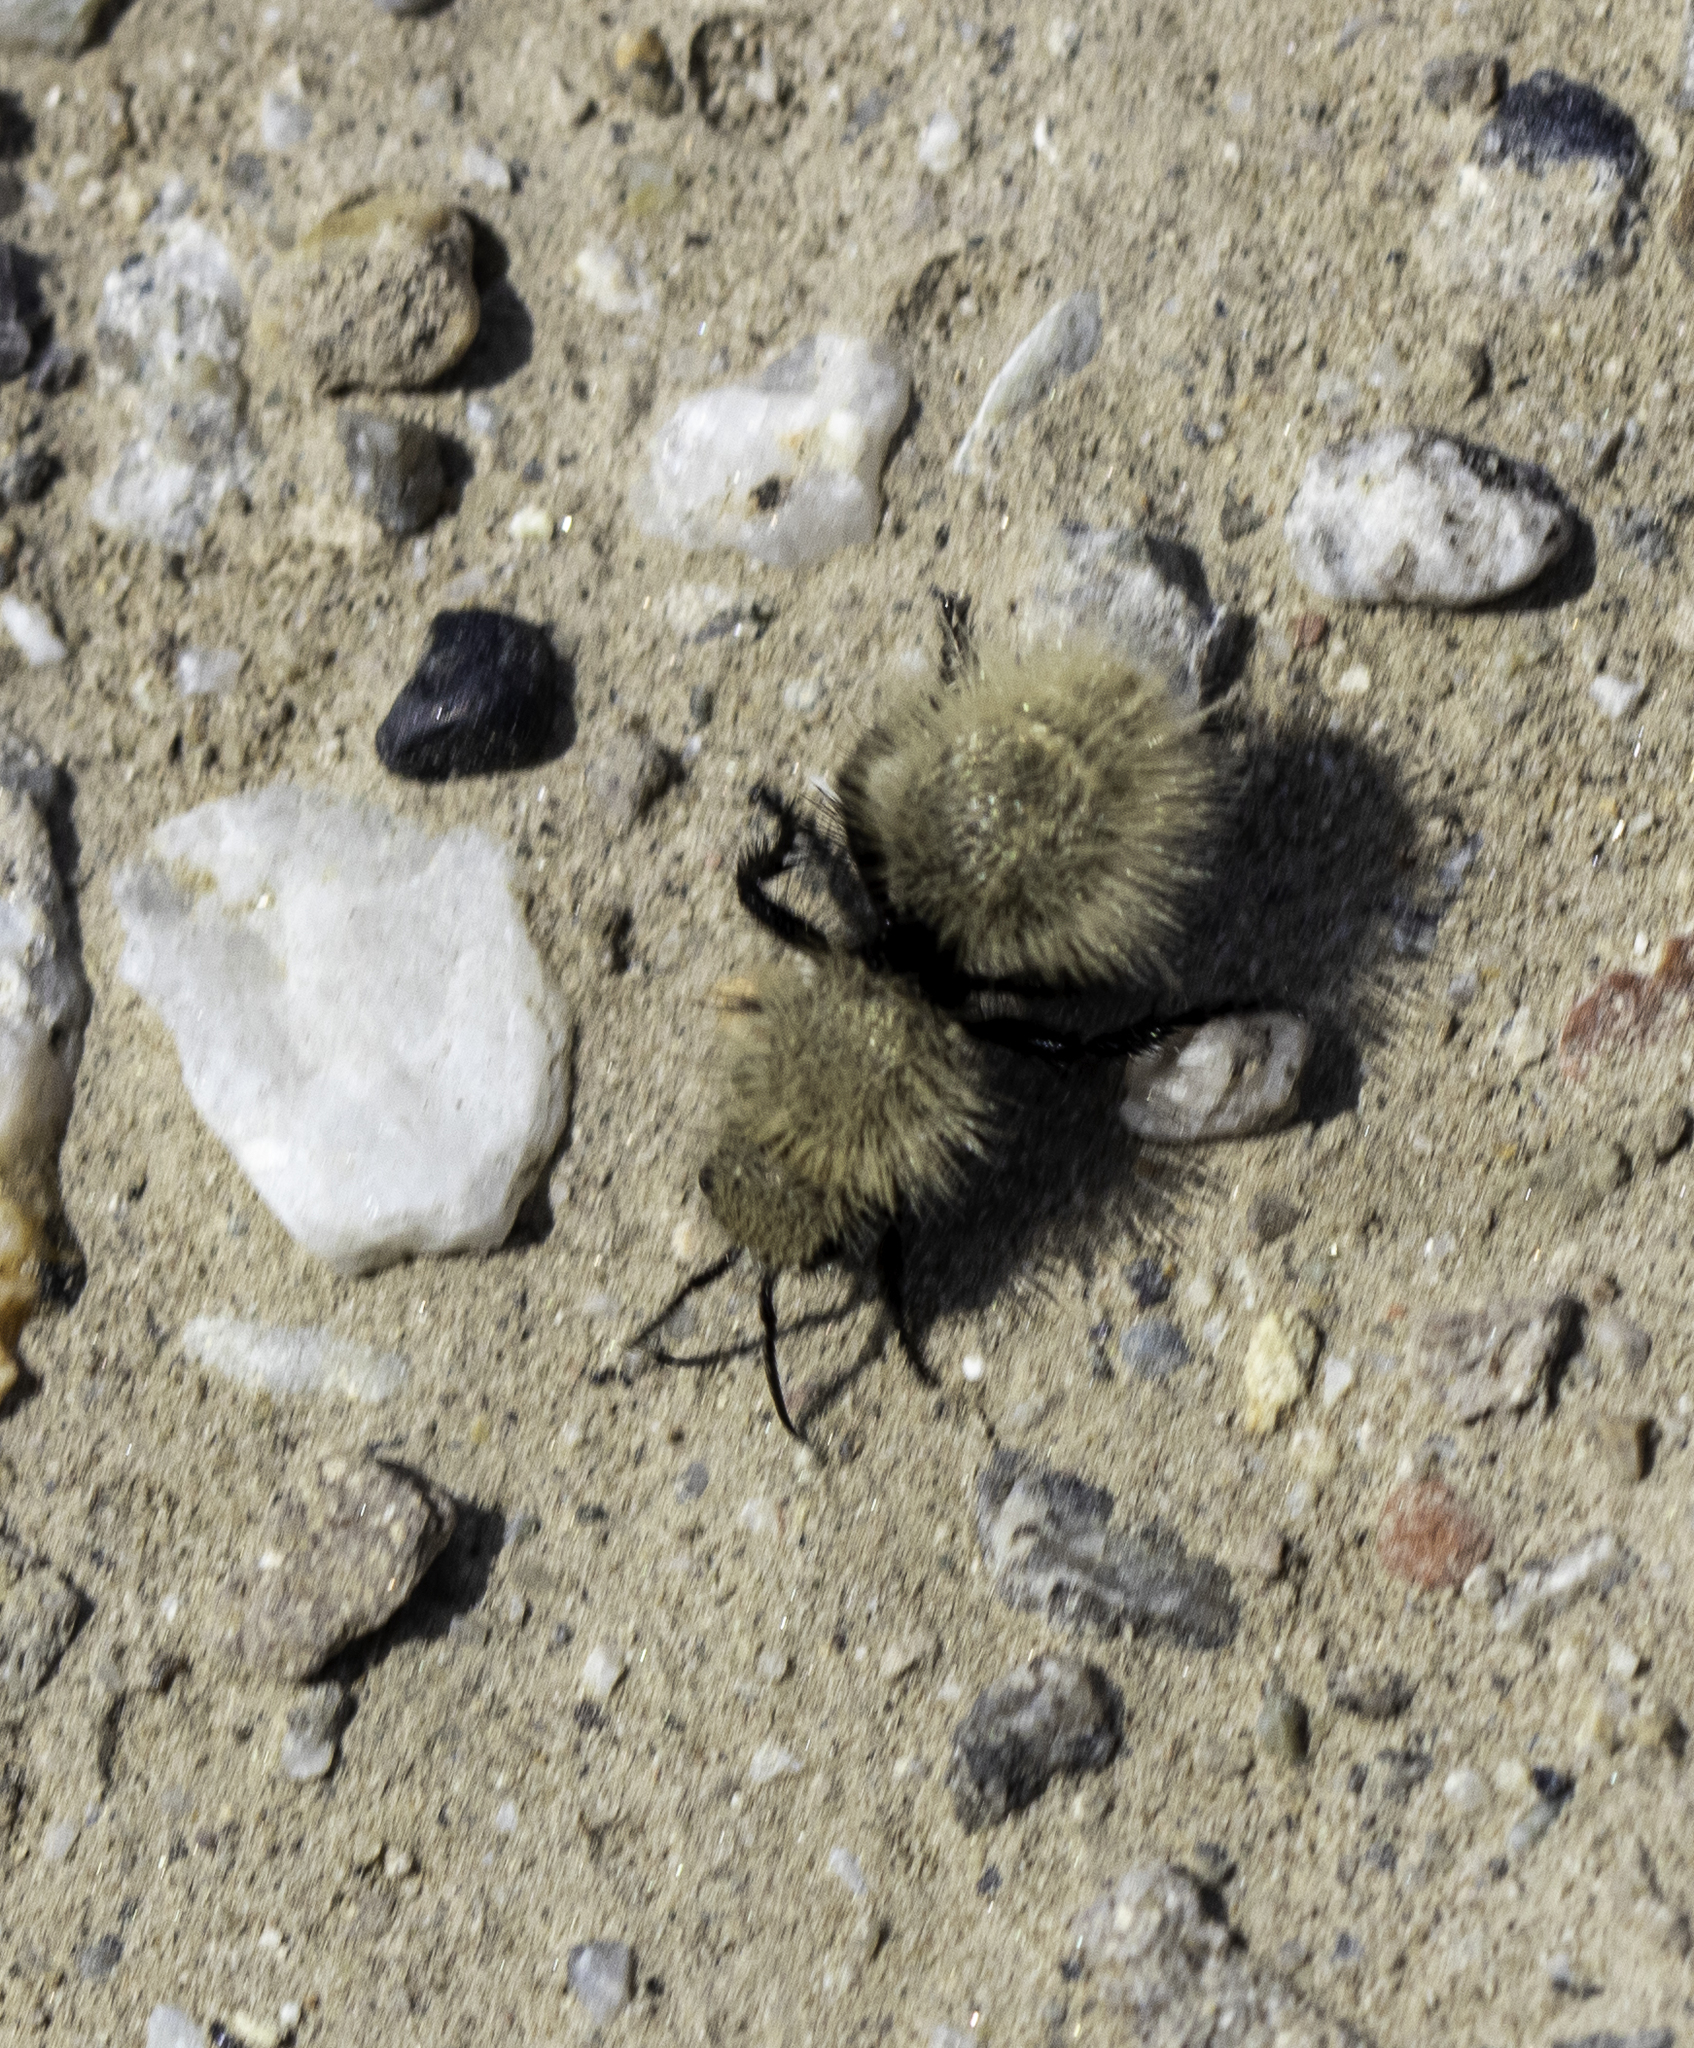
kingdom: Animalia
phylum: Arthropoda
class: Insecta
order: Hymenoptera
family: Mutillidae
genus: Dasymutilla
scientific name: Dasymutilla
